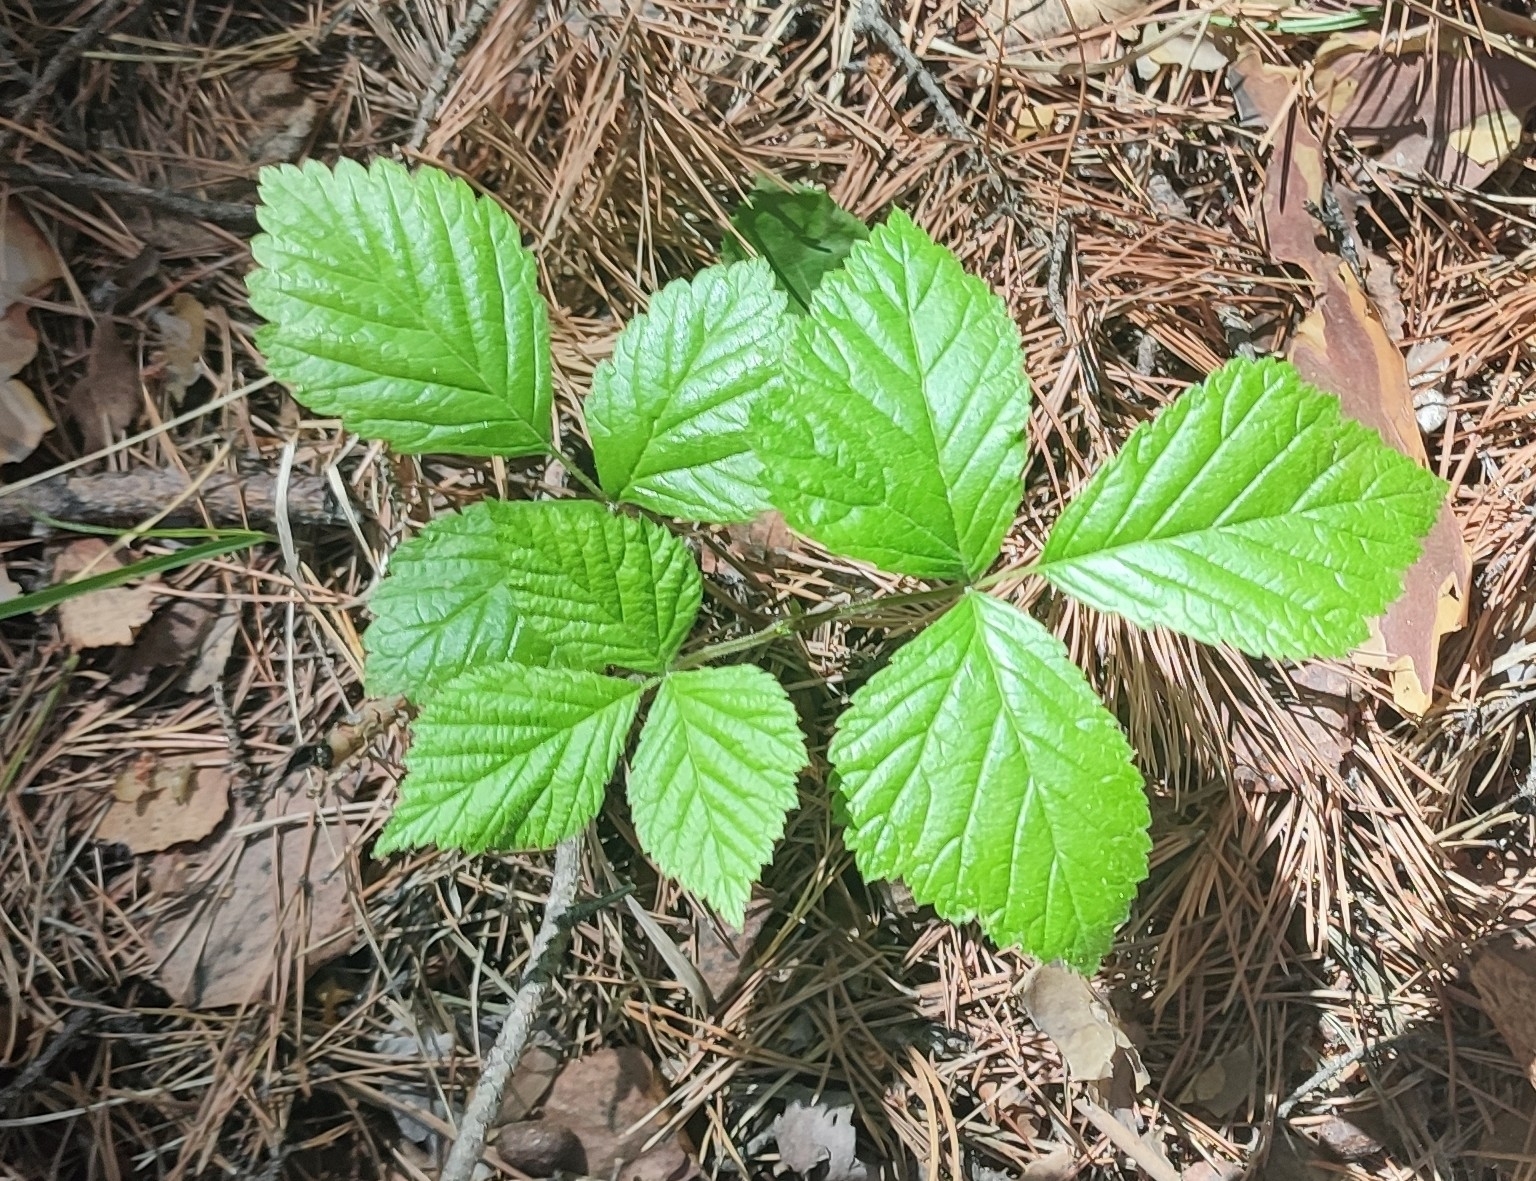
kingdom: Plantae
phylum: Tracheophyta
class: Magnoliopsida
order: Rosales
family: Rosaceae
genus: Rubus
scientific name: Rubus saxatilis
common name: Stone bramble
